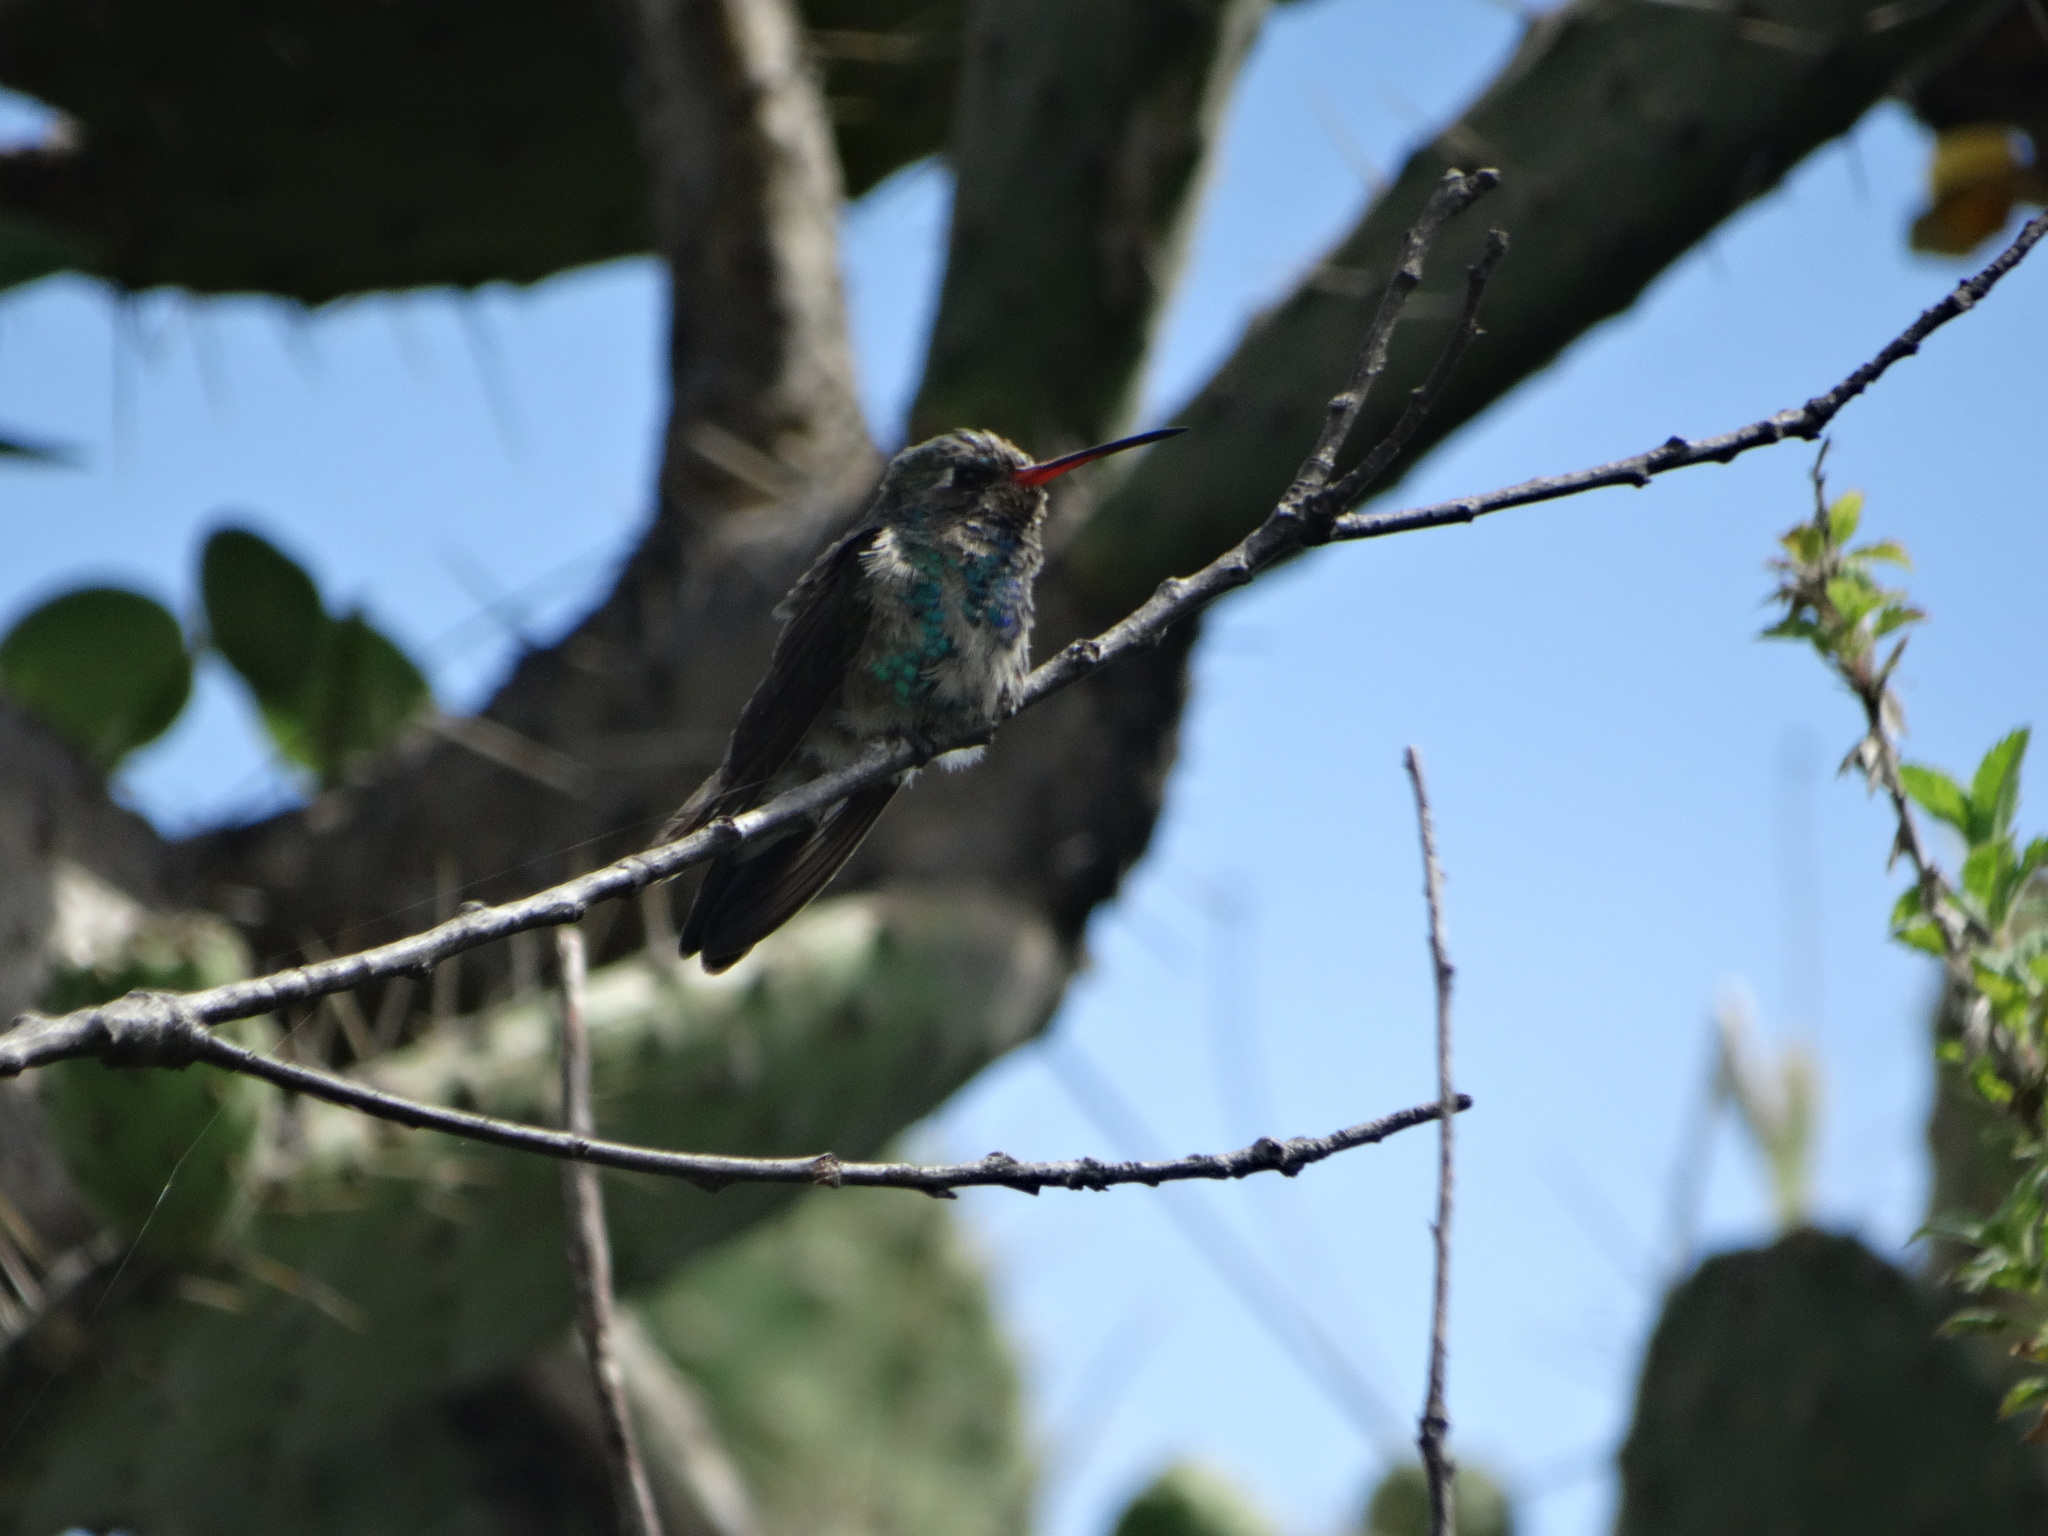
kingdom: Animalia
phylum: Chordata
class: Aves
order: Apodiformes
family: Trochilidae
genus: Cynanthus
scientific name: Cynanthus latirostris
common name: Broad-billed hummingbird
